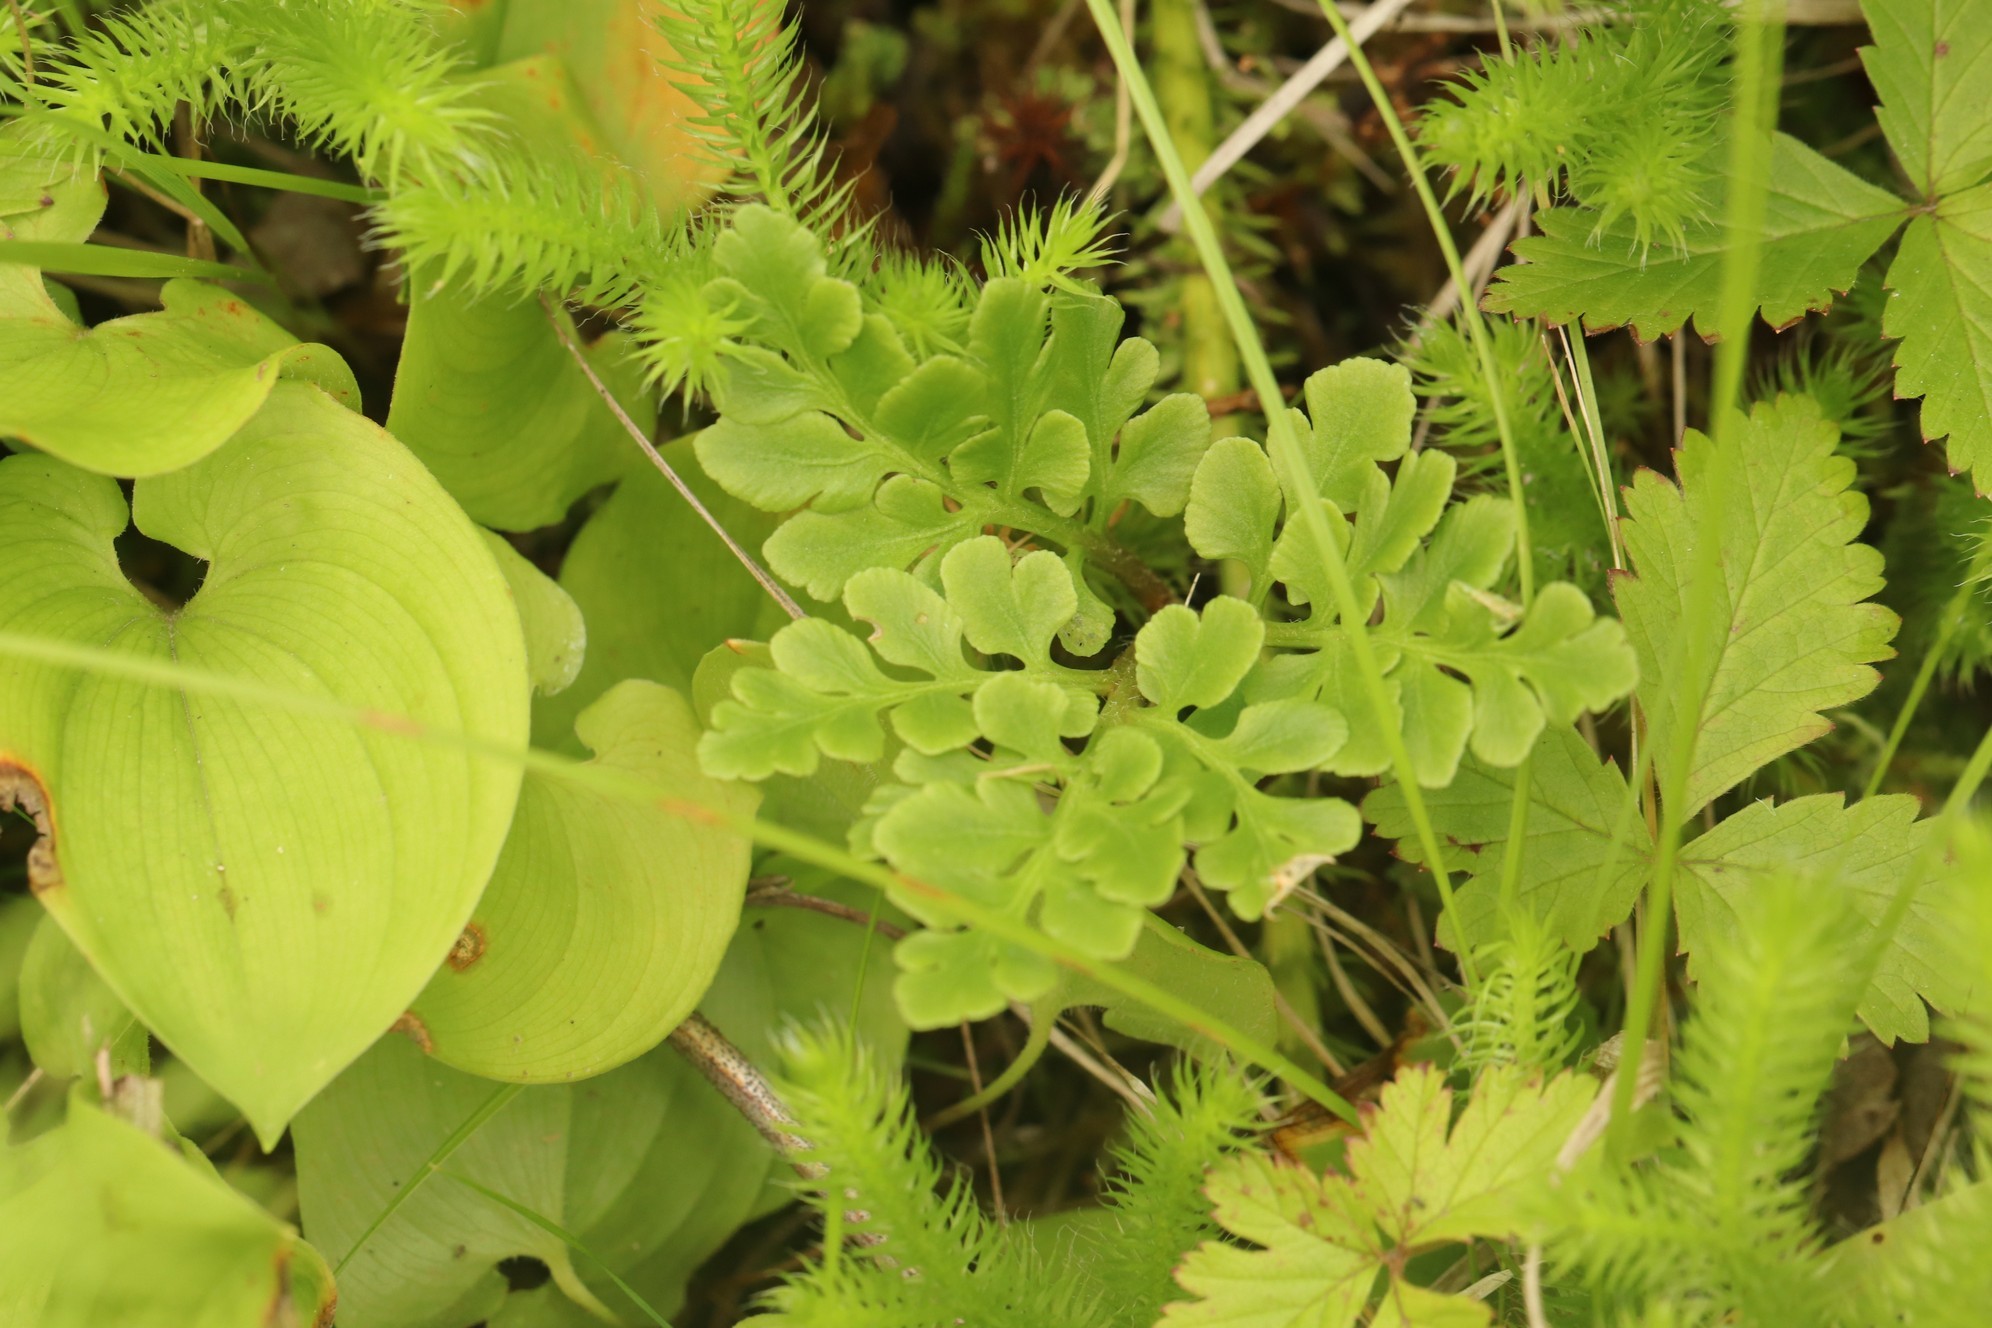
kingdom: Plantae
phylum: Tracheophyta
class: Polypodiopsida
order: Ophioglossales
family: Ophioglossaceae
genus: Sceptridium
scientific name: Sceptridium multifidum
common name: Leathery grape fern
